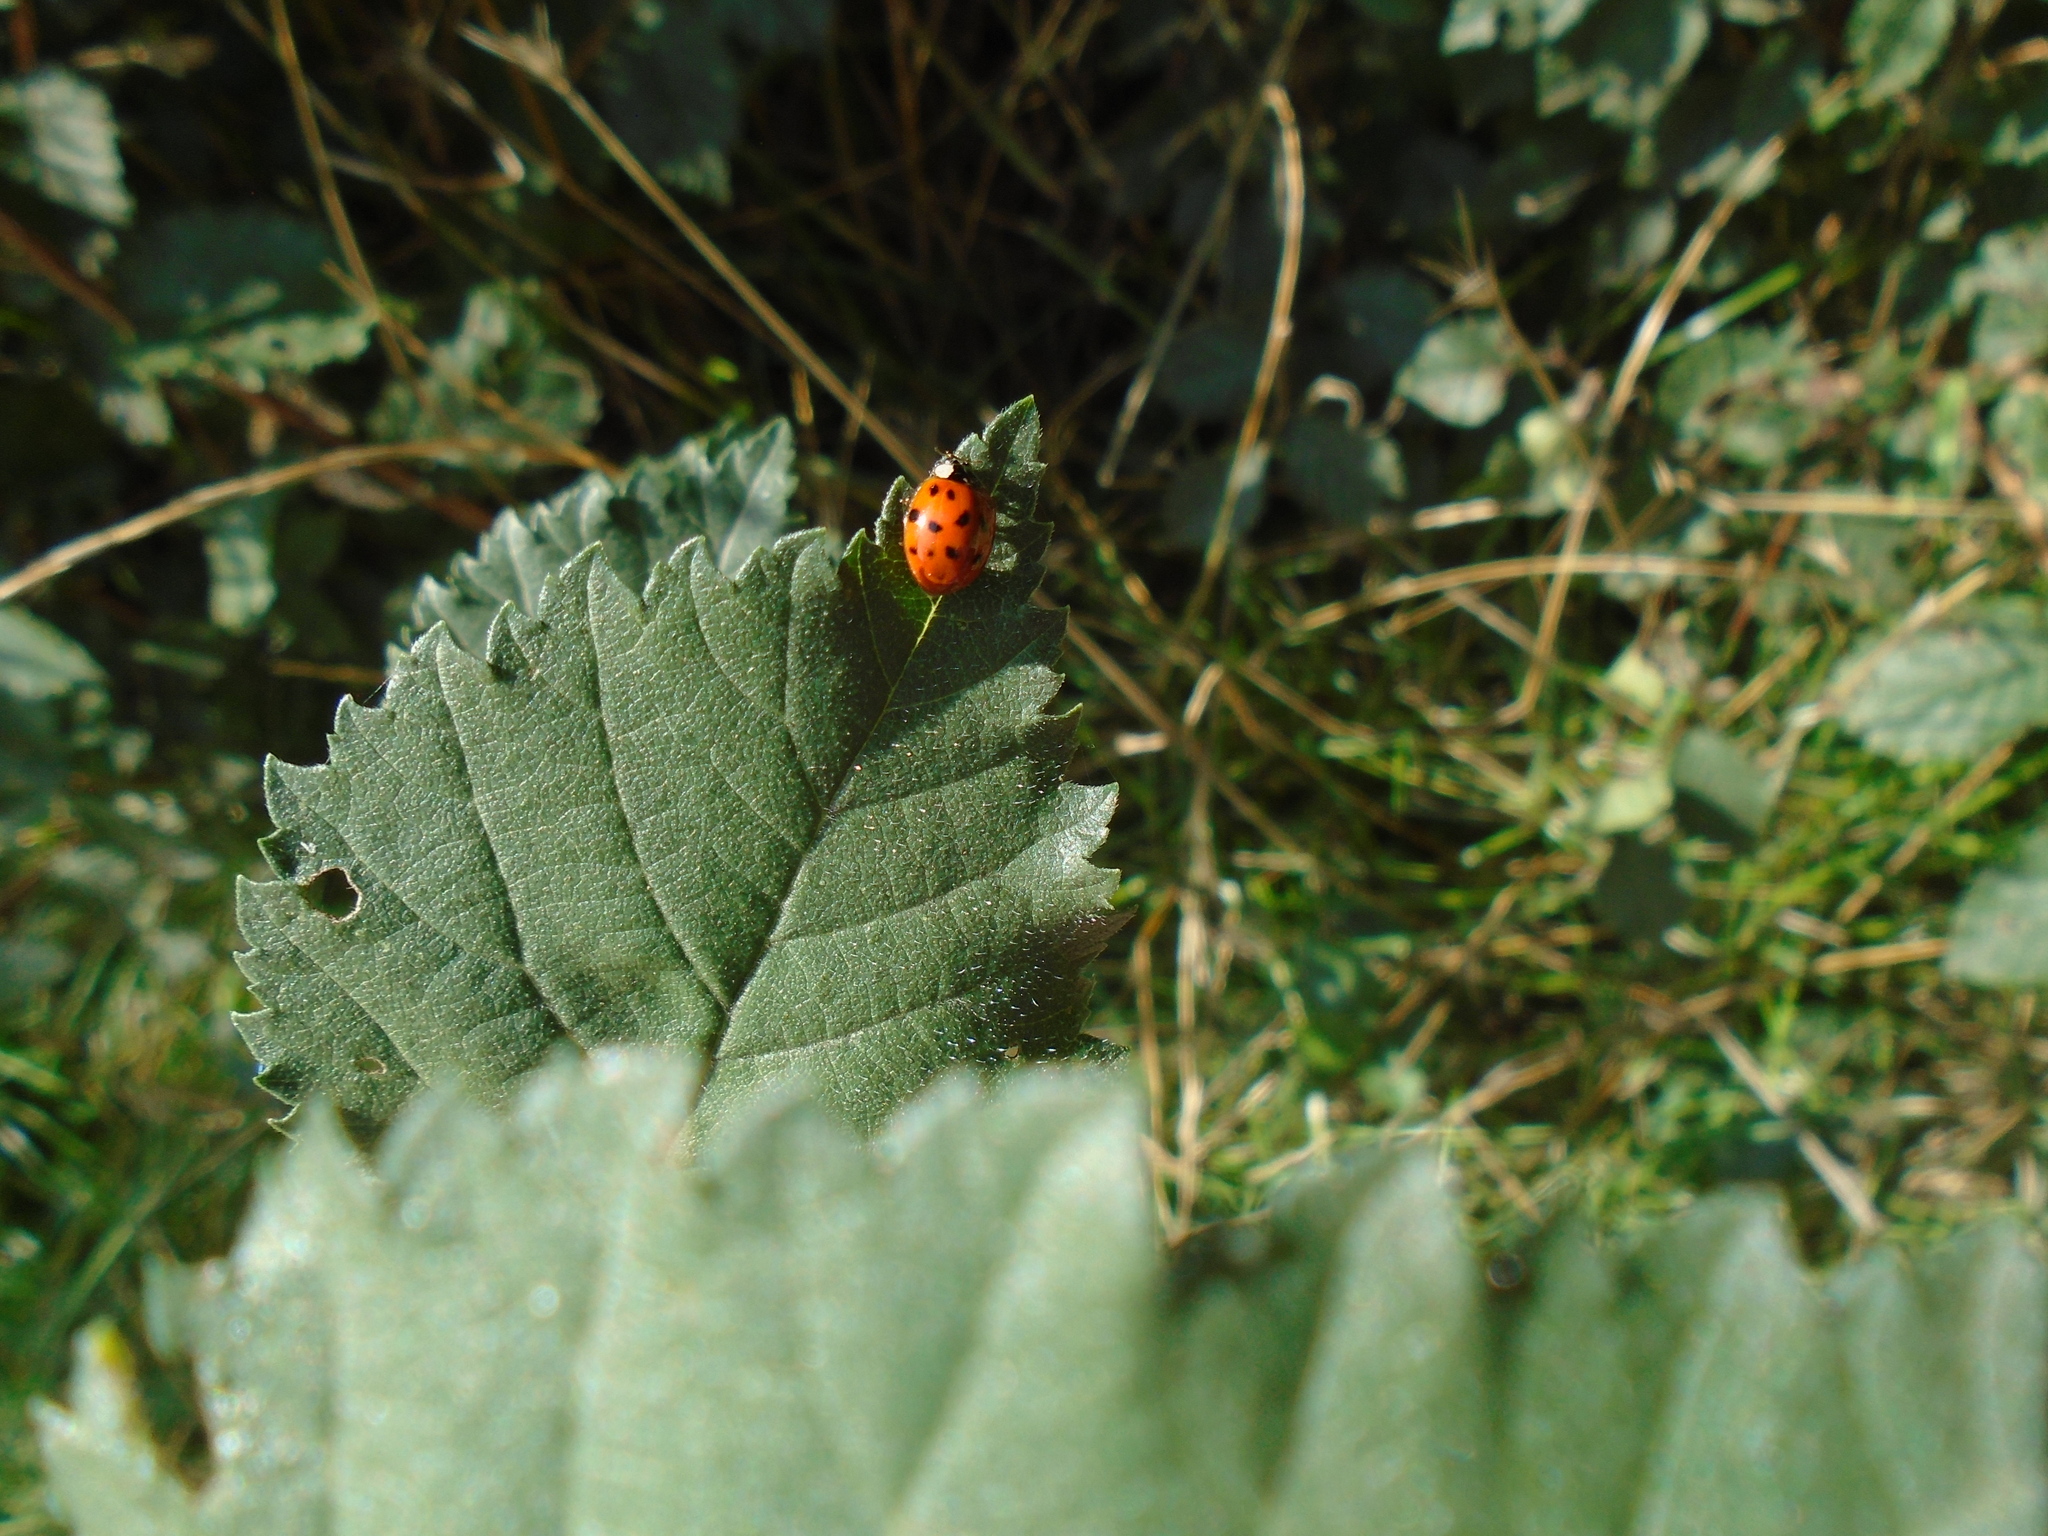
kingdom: Animalia
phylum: Arthropoda
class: Insecta
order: Coleoptera
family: Coccinellidae
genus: Harmonia
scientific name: Harmonia axyridis
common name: Harlequin ladybird
